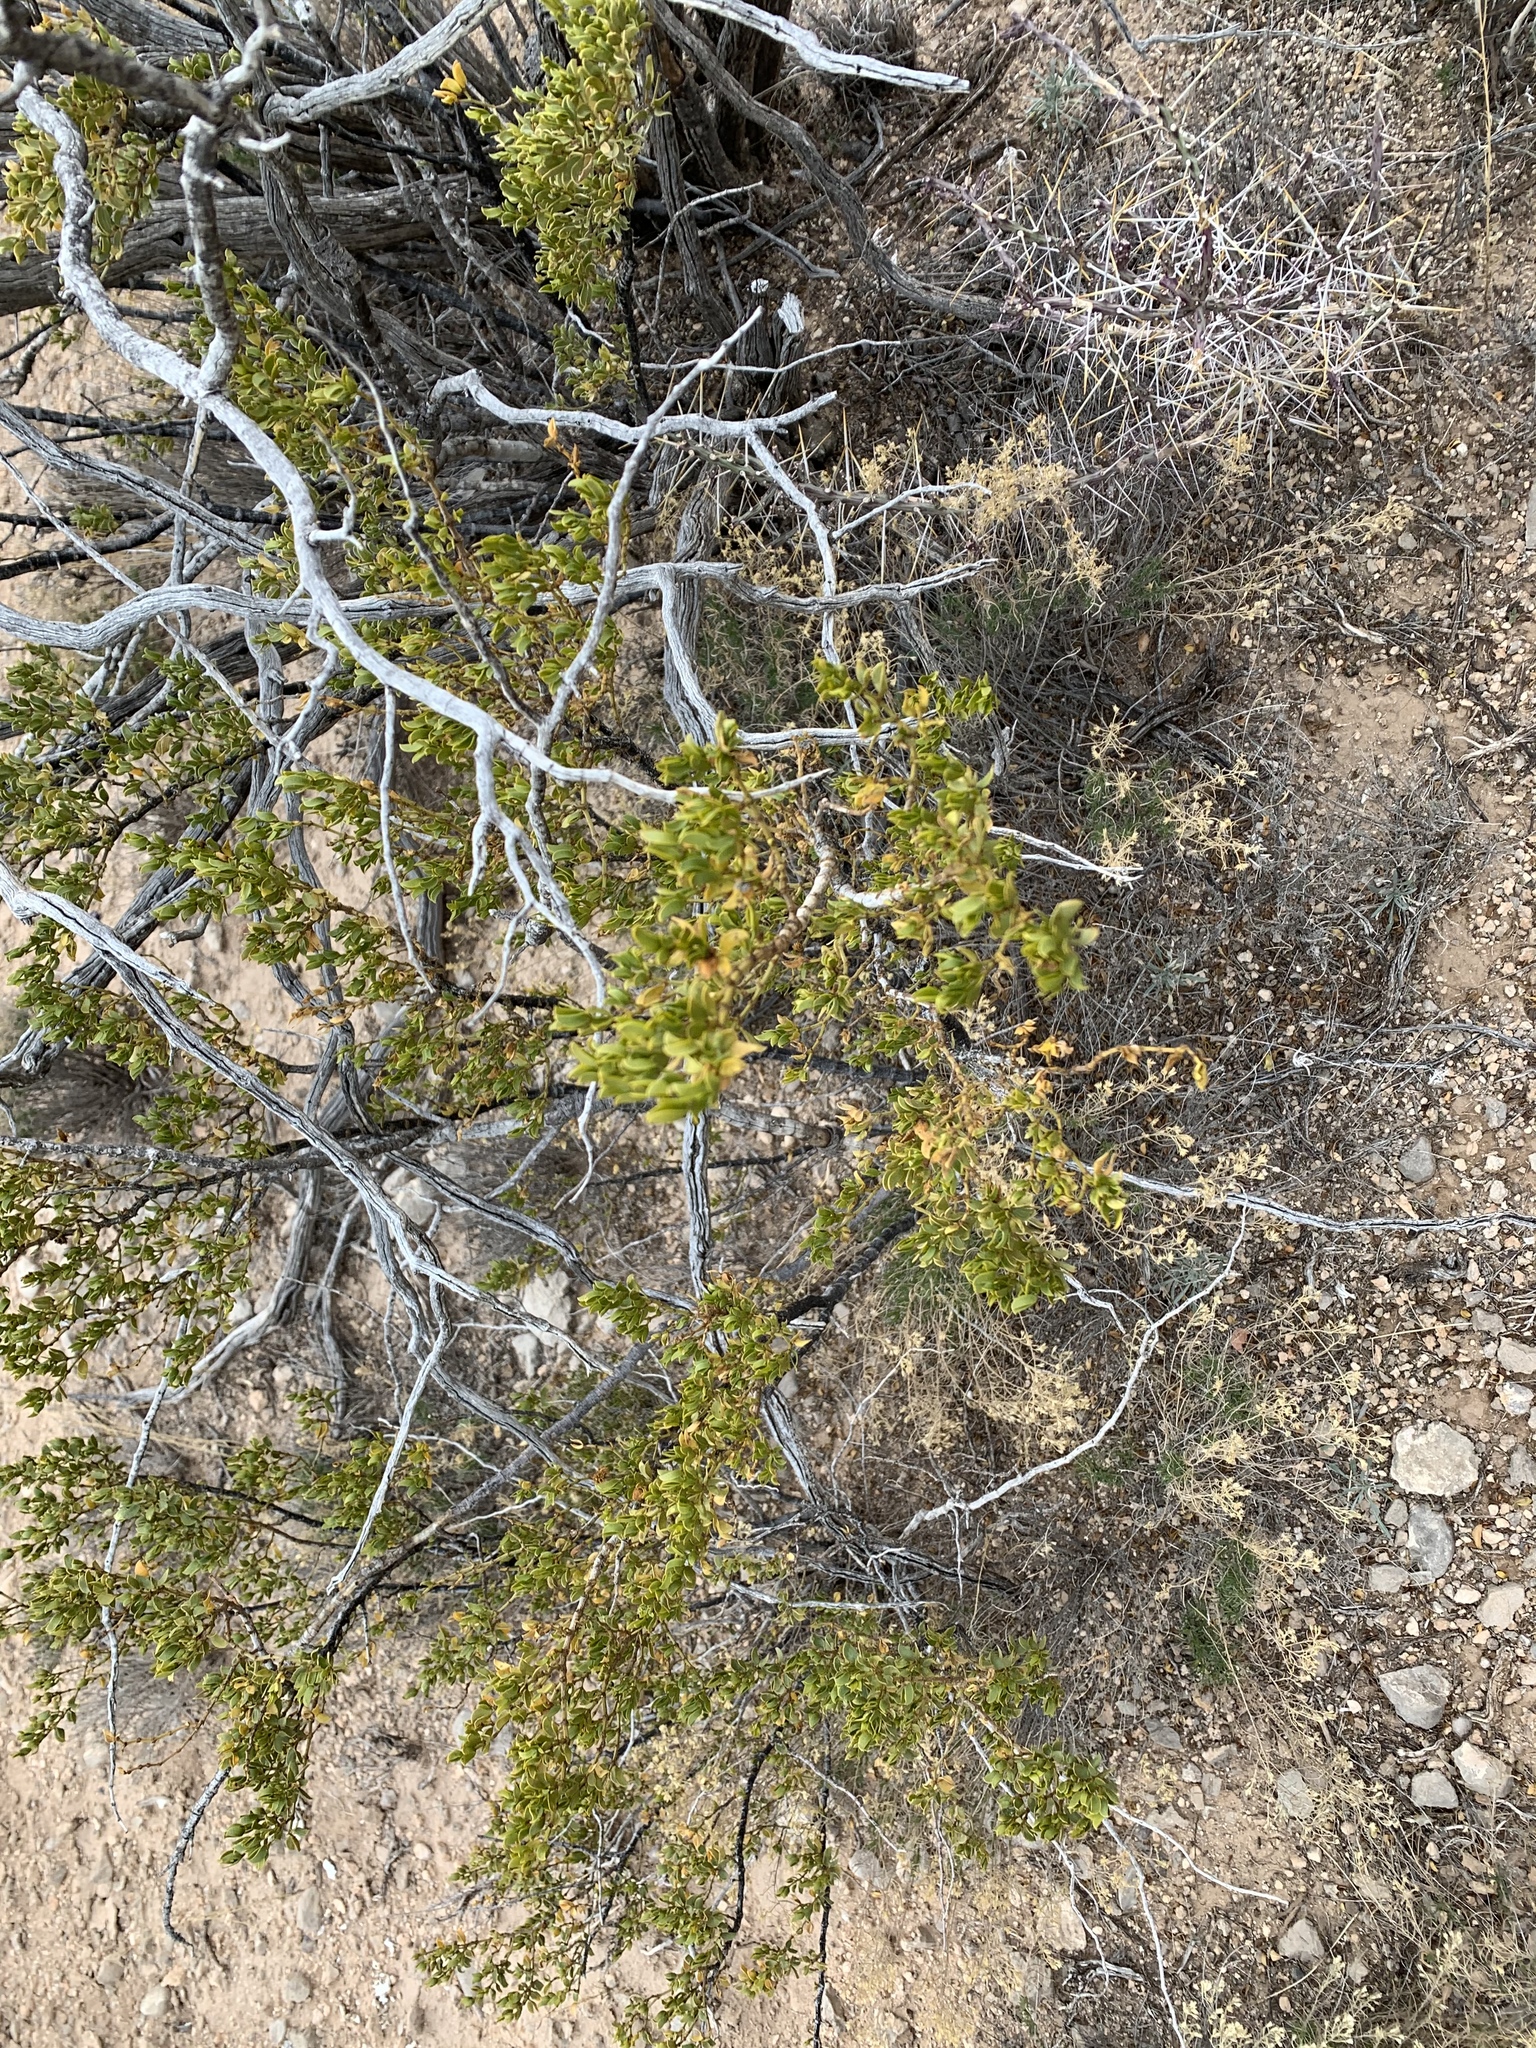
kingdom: Plantae
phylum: Tracheophyta
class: Magnoliopsida
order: Zygophyllales
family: Zygophyllaceae
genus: Larrea
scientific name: Larrea tridentata
